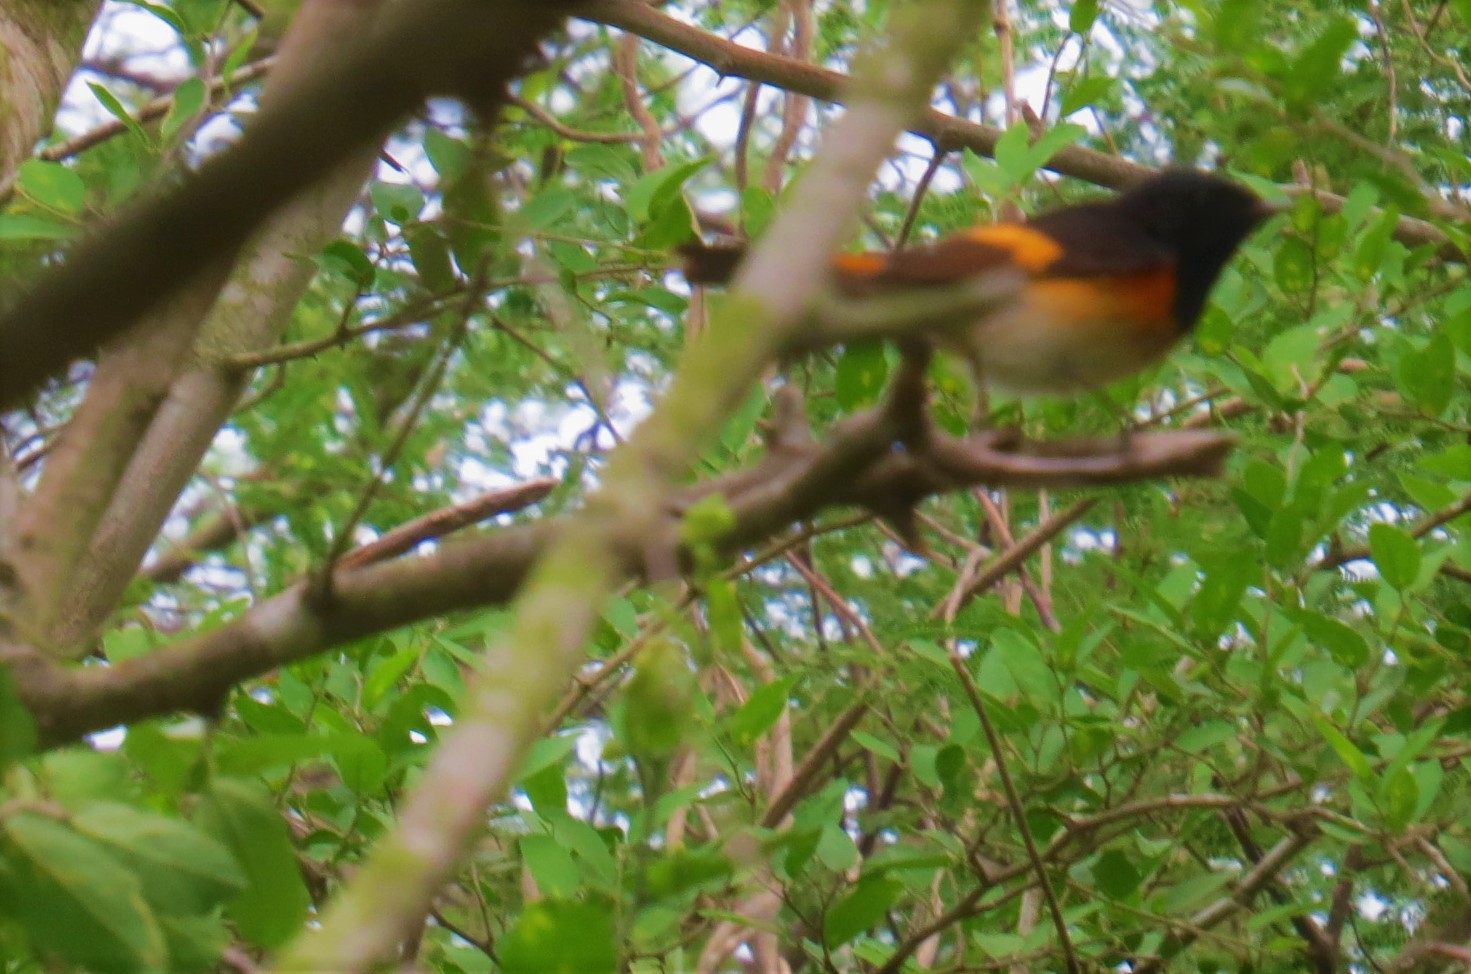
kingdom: Animalia
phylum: Chordata
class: Aves
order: Passeriformes
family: Parulidae
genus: Setophaga
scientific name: Setophaga ruticilla
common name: American redstart
